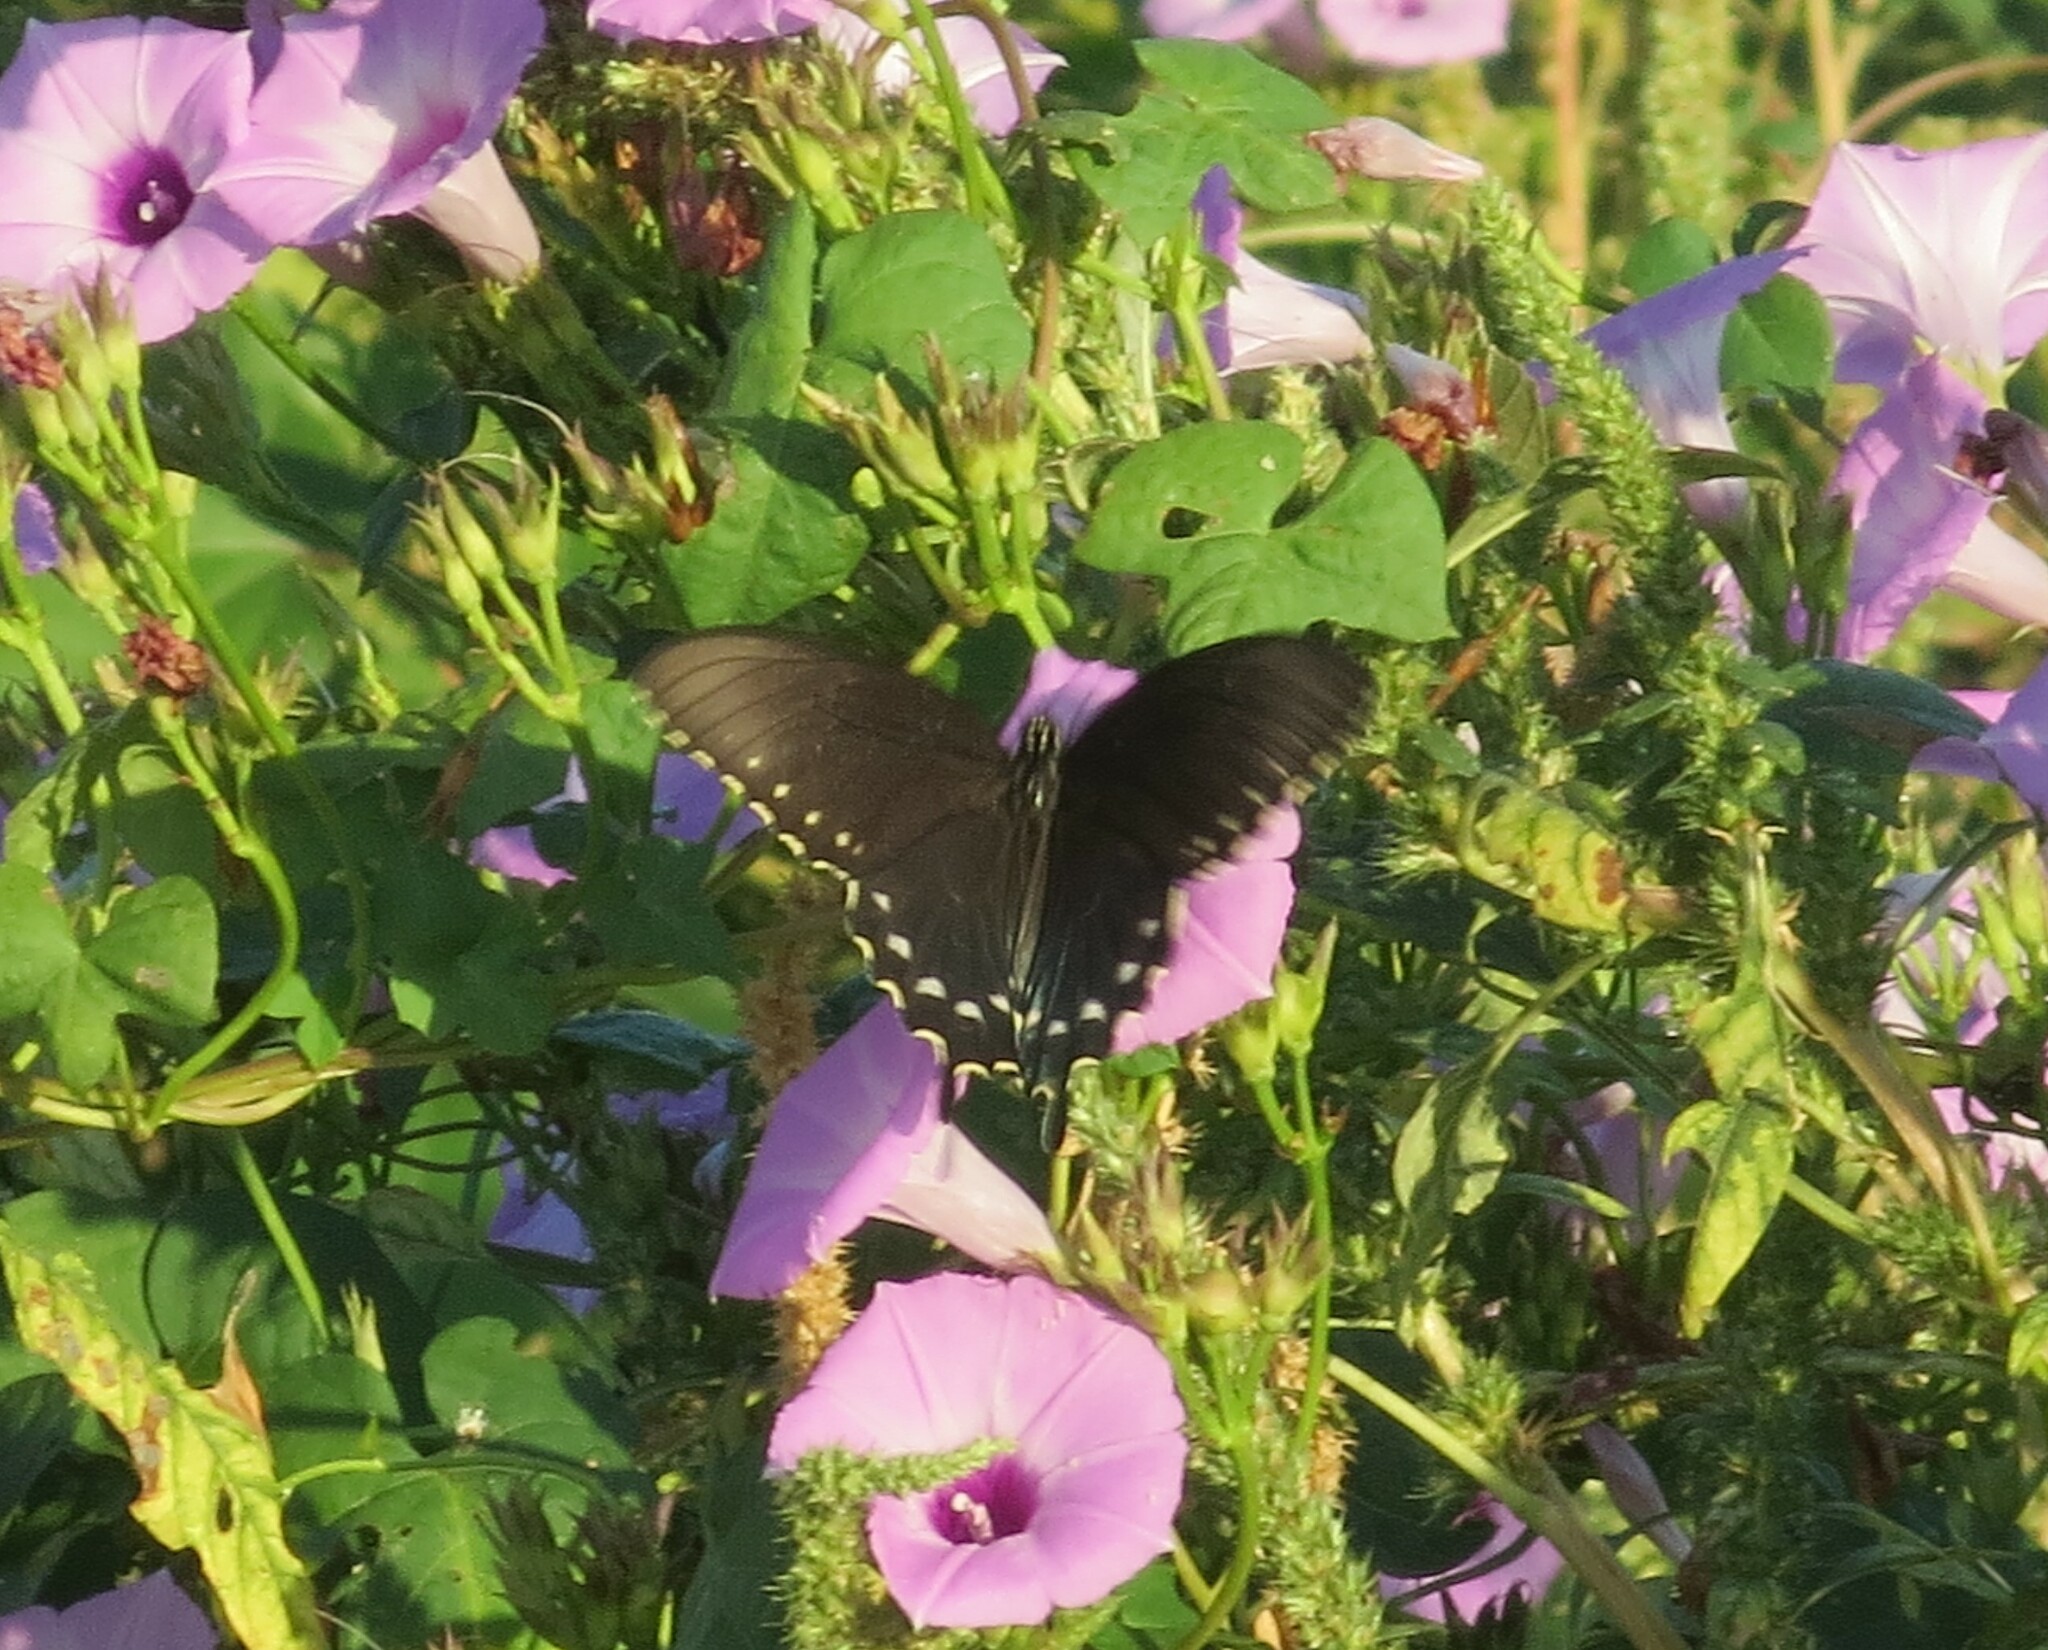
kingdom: Animalia
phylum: Arthropoda
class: Insecta
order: Lepidoptera
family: Papilionidae
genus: Battus
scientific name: Battus philenor
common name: Pipevine swallowtail
